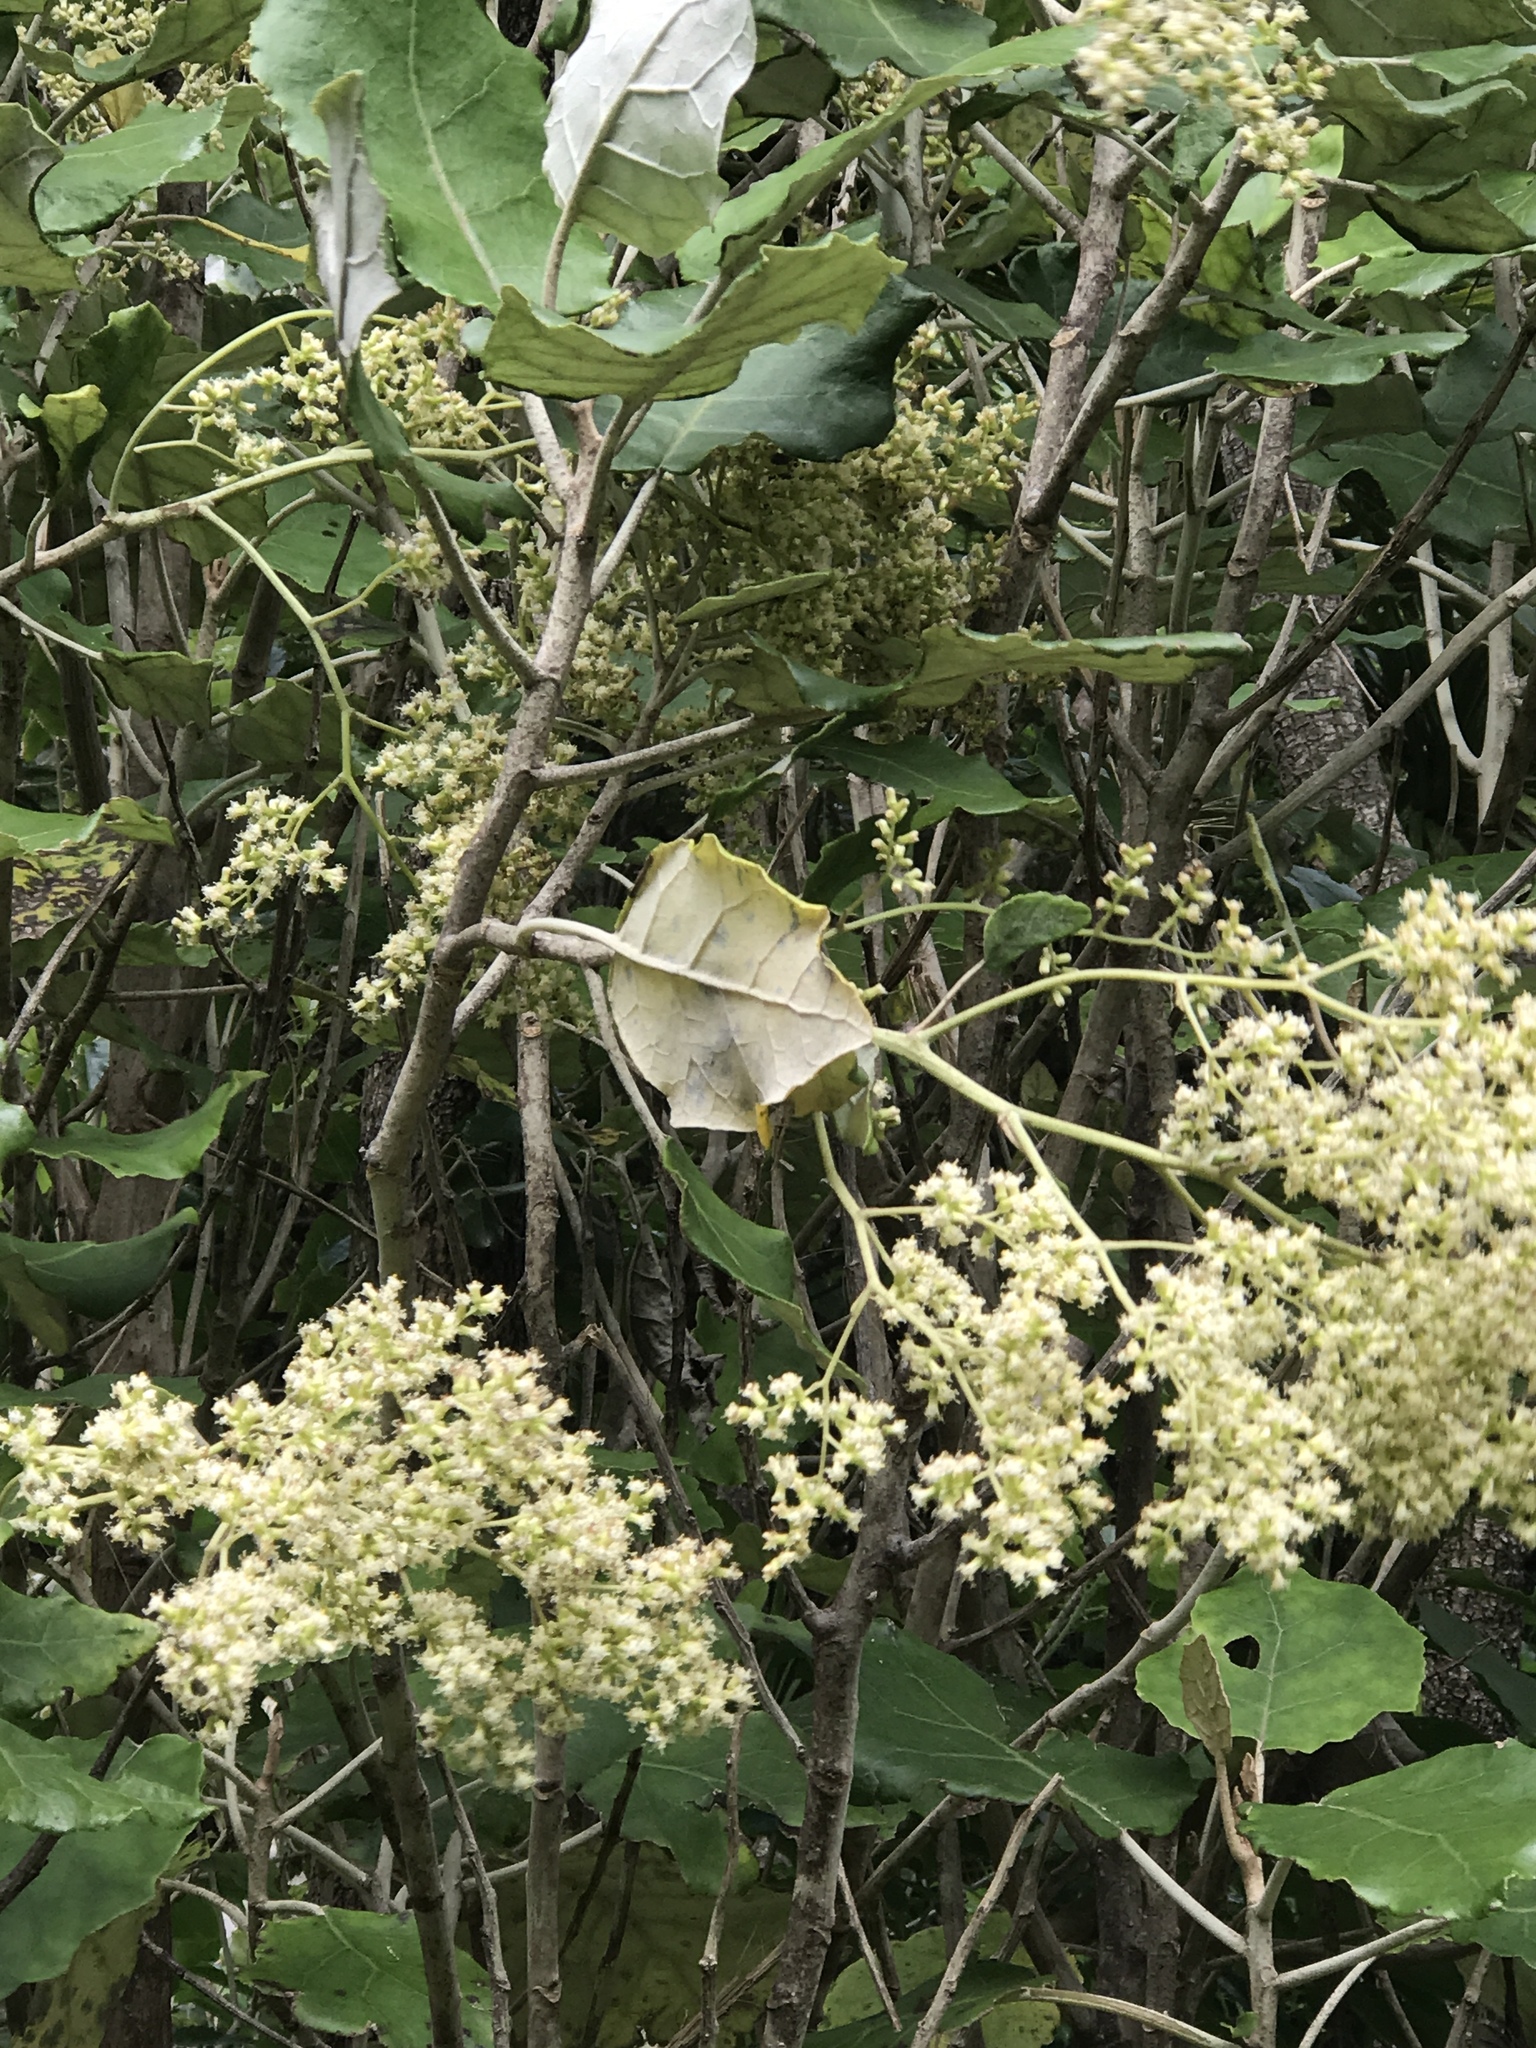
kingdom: Plantae
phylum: Tracheophyta
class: Magnoliopsida
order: Asterales
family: Asteraceae
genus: Brachyglottis
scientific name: Brachyglottis repanda
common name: Hedge ragwort
